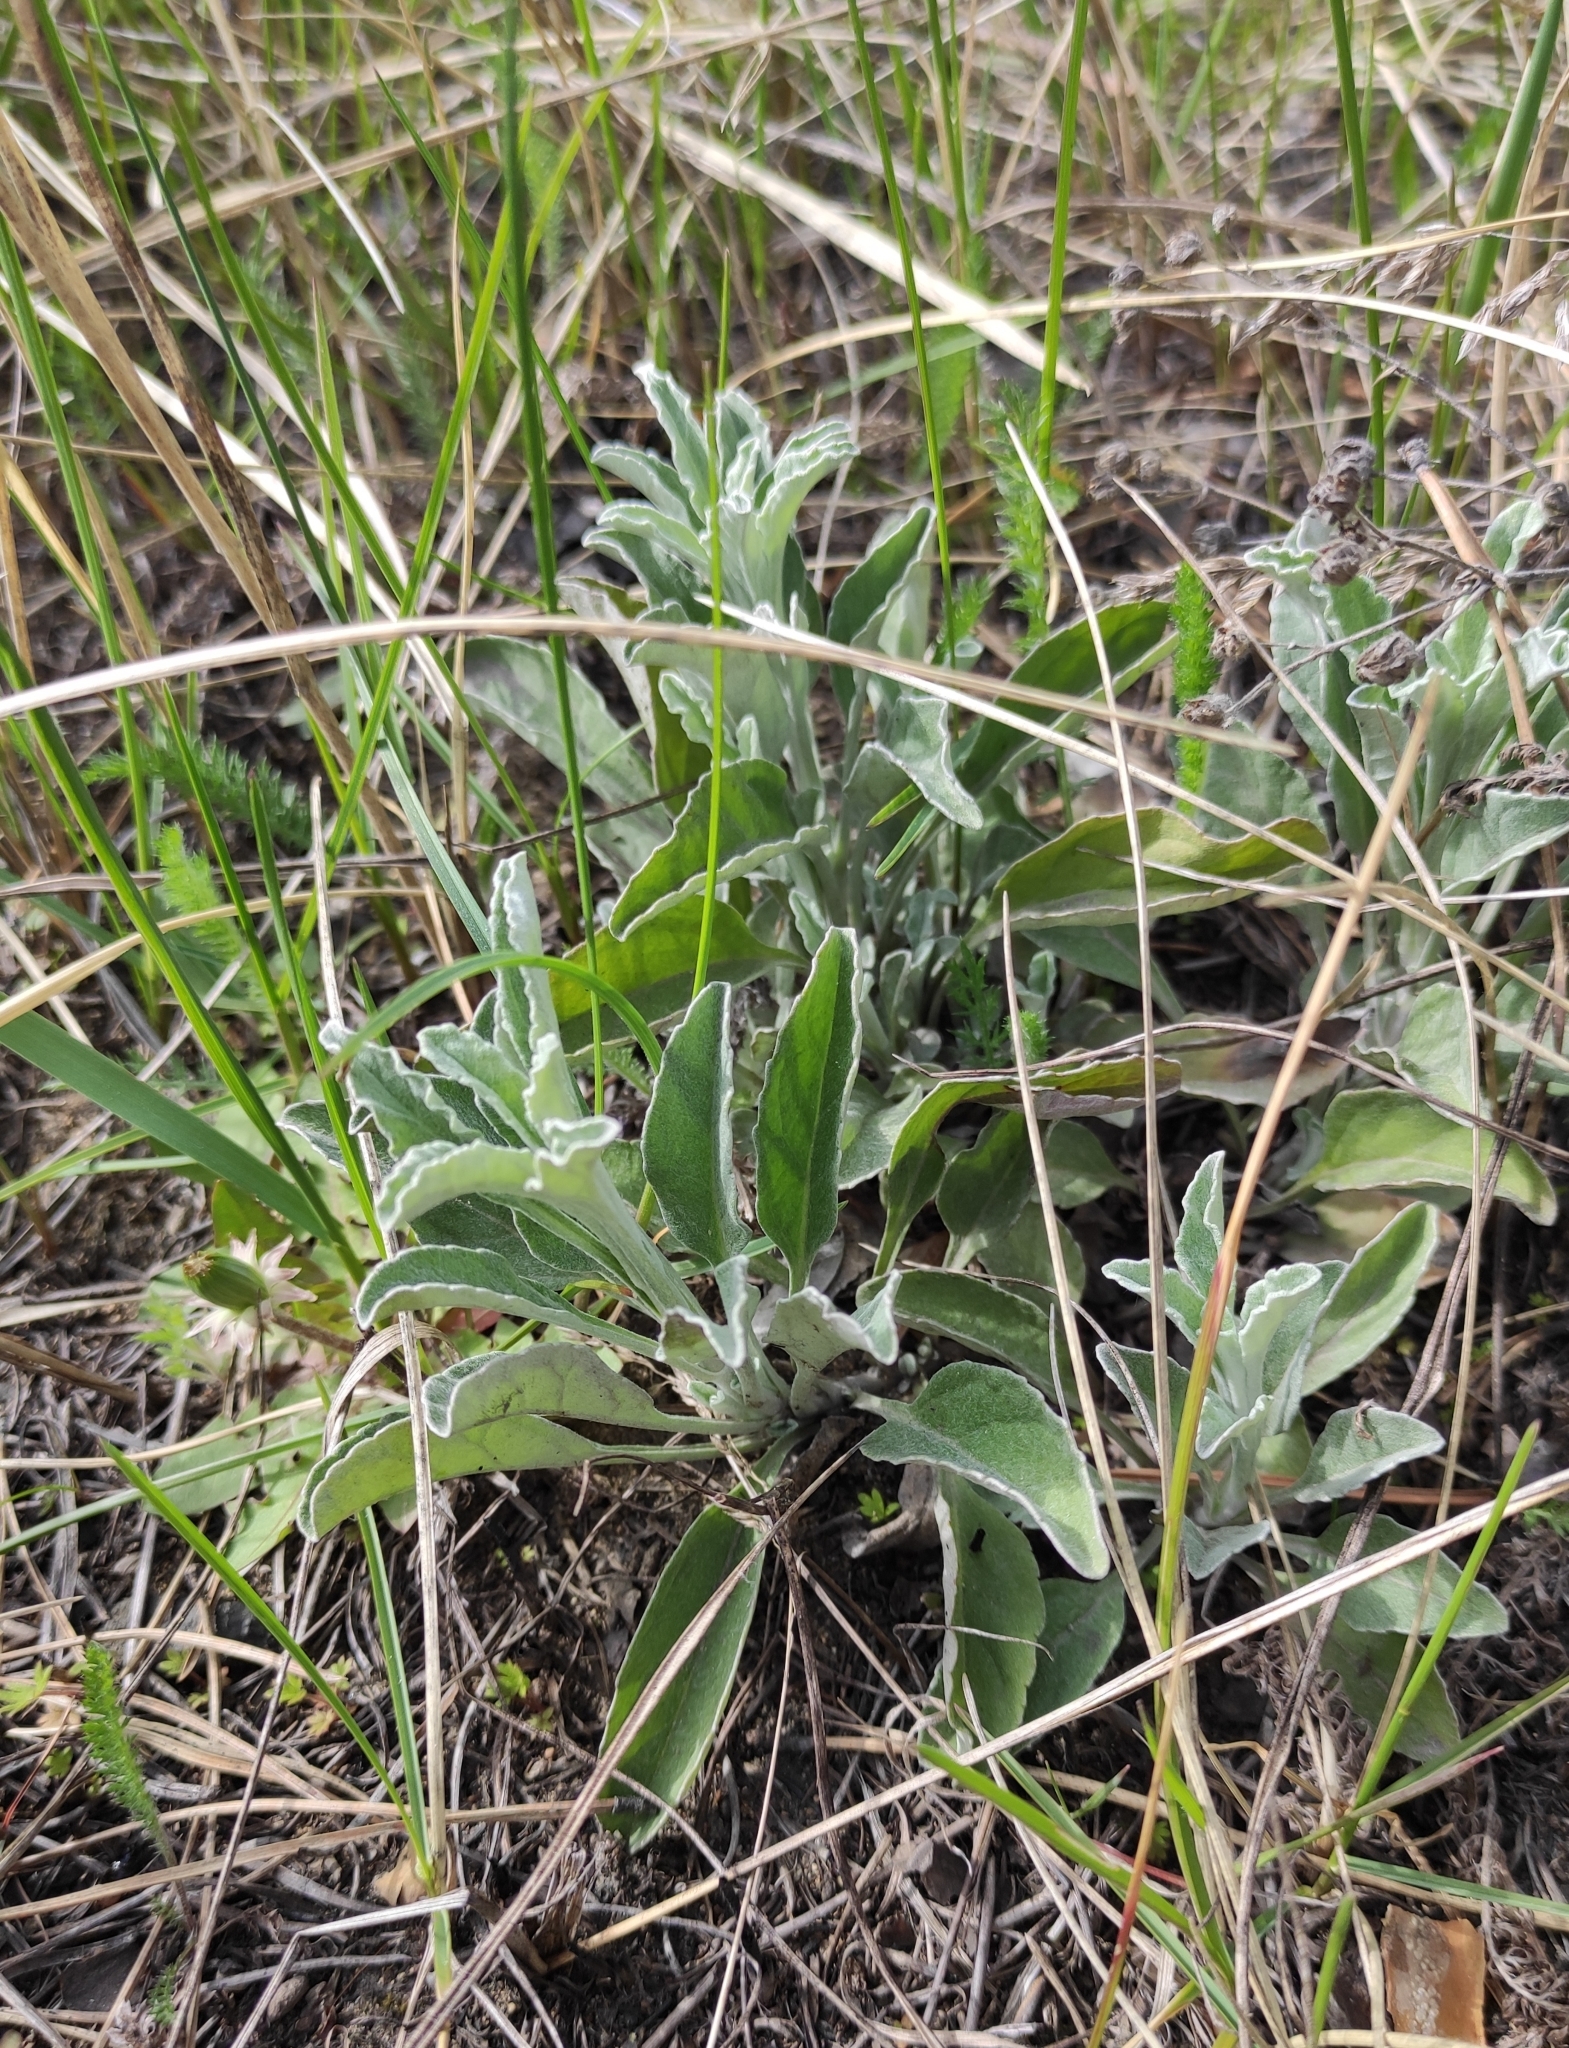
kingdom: Plantae
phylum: Tracheophyta
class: Magnoliopsida
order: Lamiales
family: Plantaginaceae
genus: Veronica
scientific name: Veronica incana
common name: Silver speedwell
